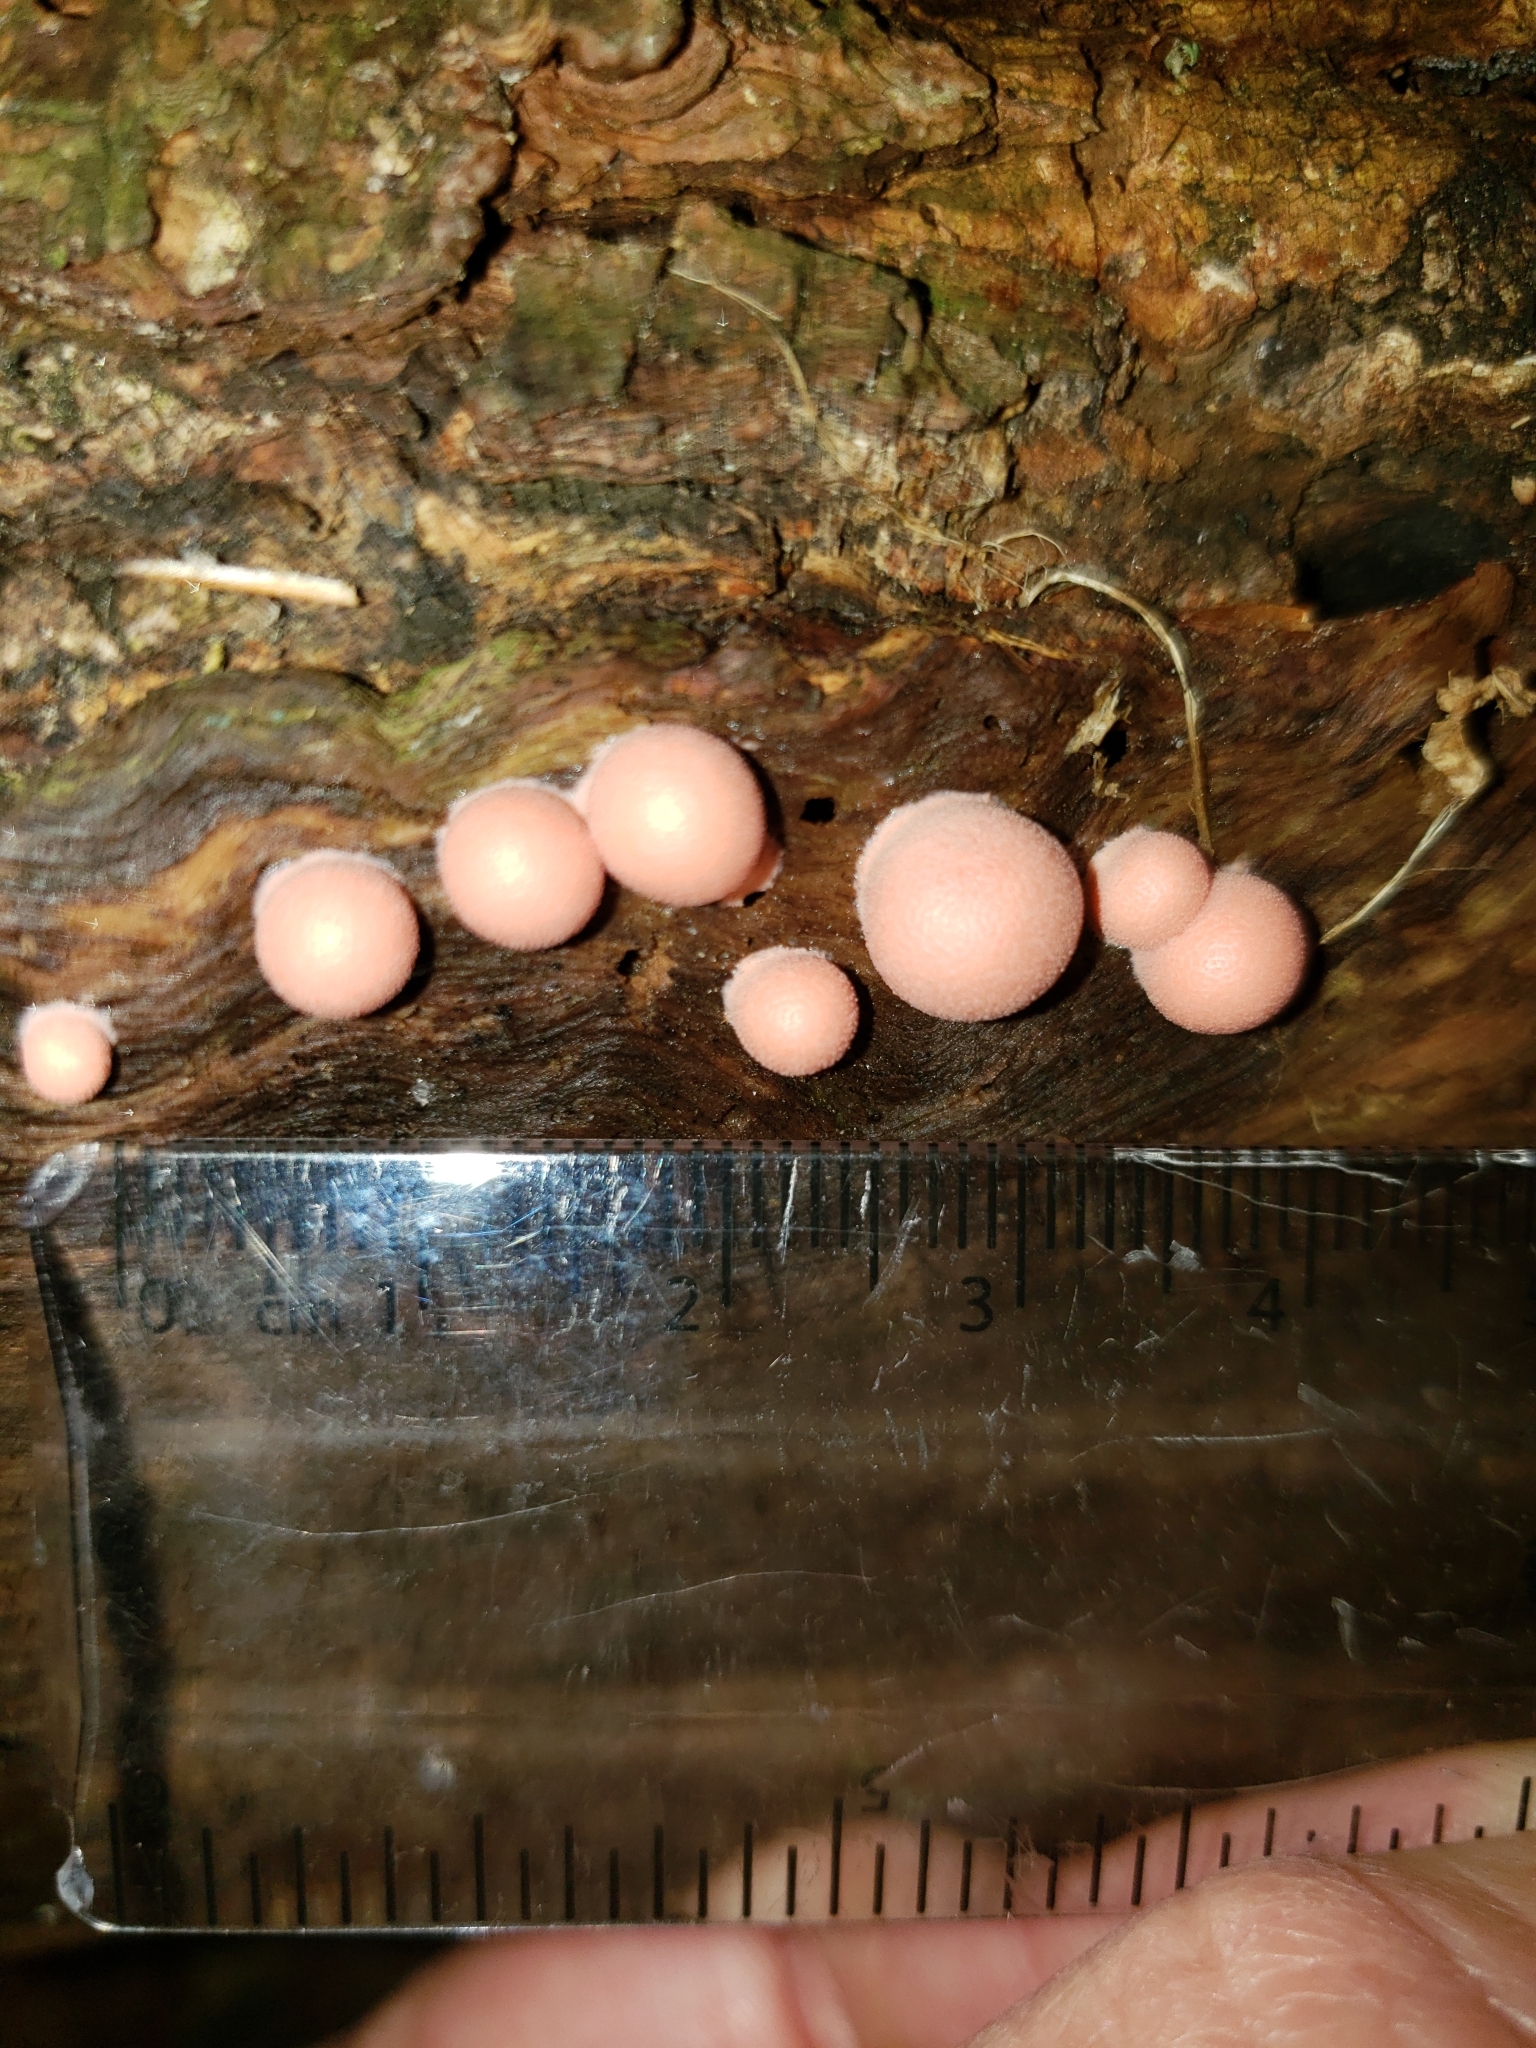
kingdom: Protozoa
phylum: Mycetozoa
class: Myxomycetes
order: Cribrariales
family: Tubiferaceae
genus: Lycogala
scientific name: Lycogala epidendrum
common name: Wolf's milk
